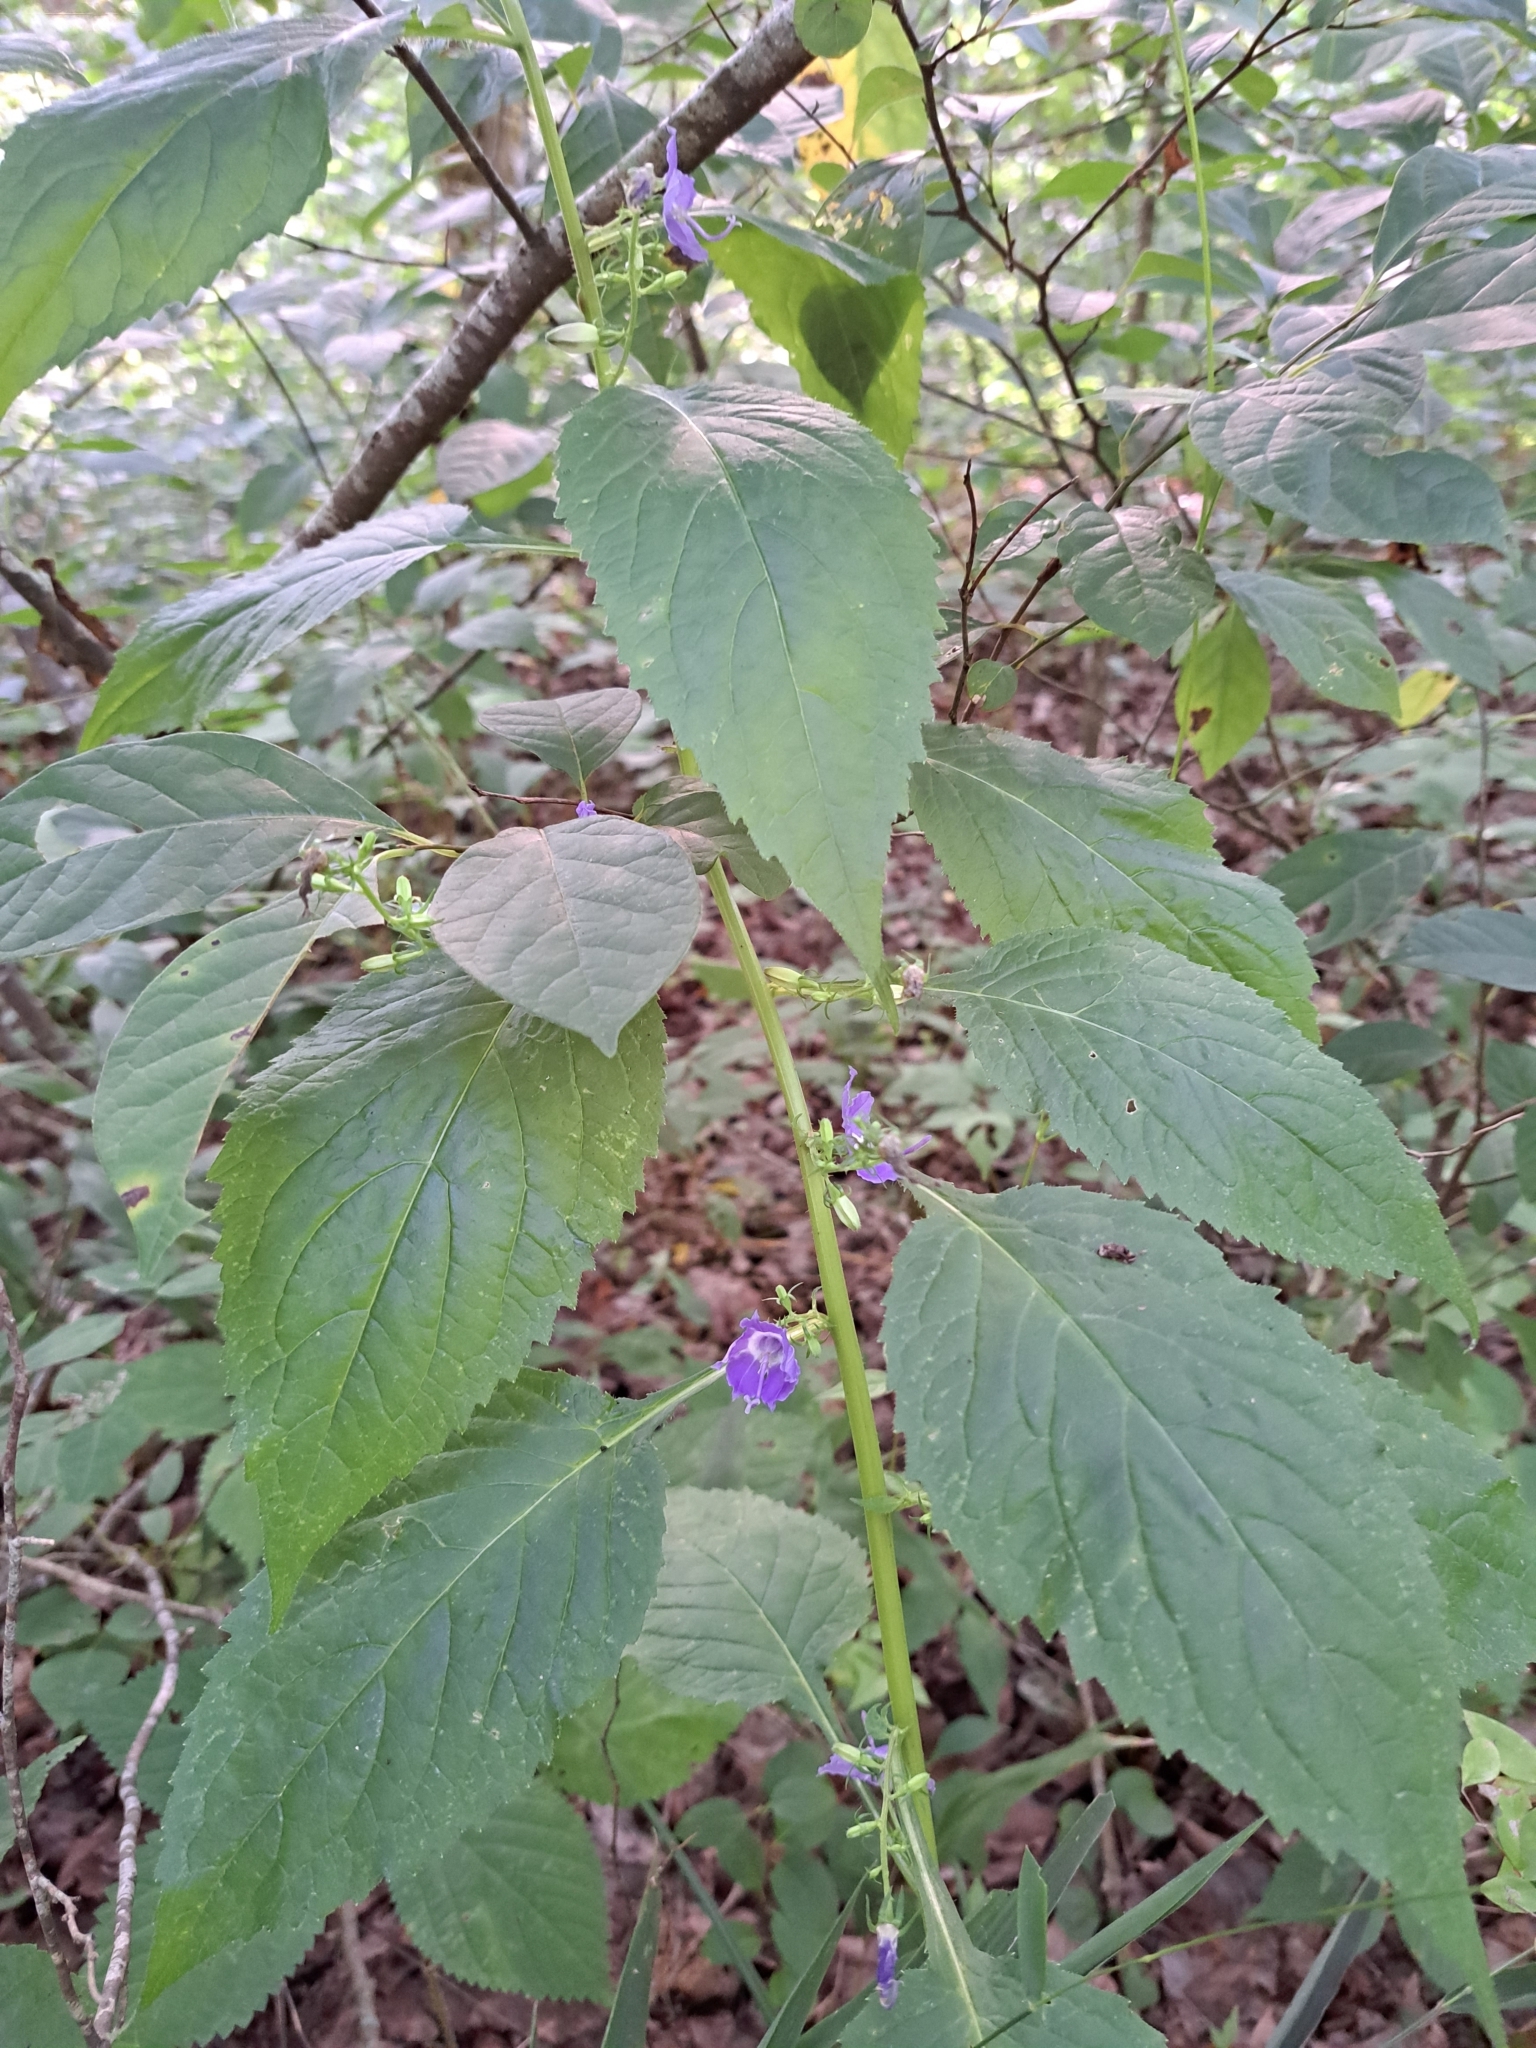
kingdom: Plantae
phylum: Tracheophyta
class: Magnoliopsida
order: Asterales
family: Campanulaceae
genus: Campanulastrum
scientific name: Campanulastrum americanum
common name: American bellflower
